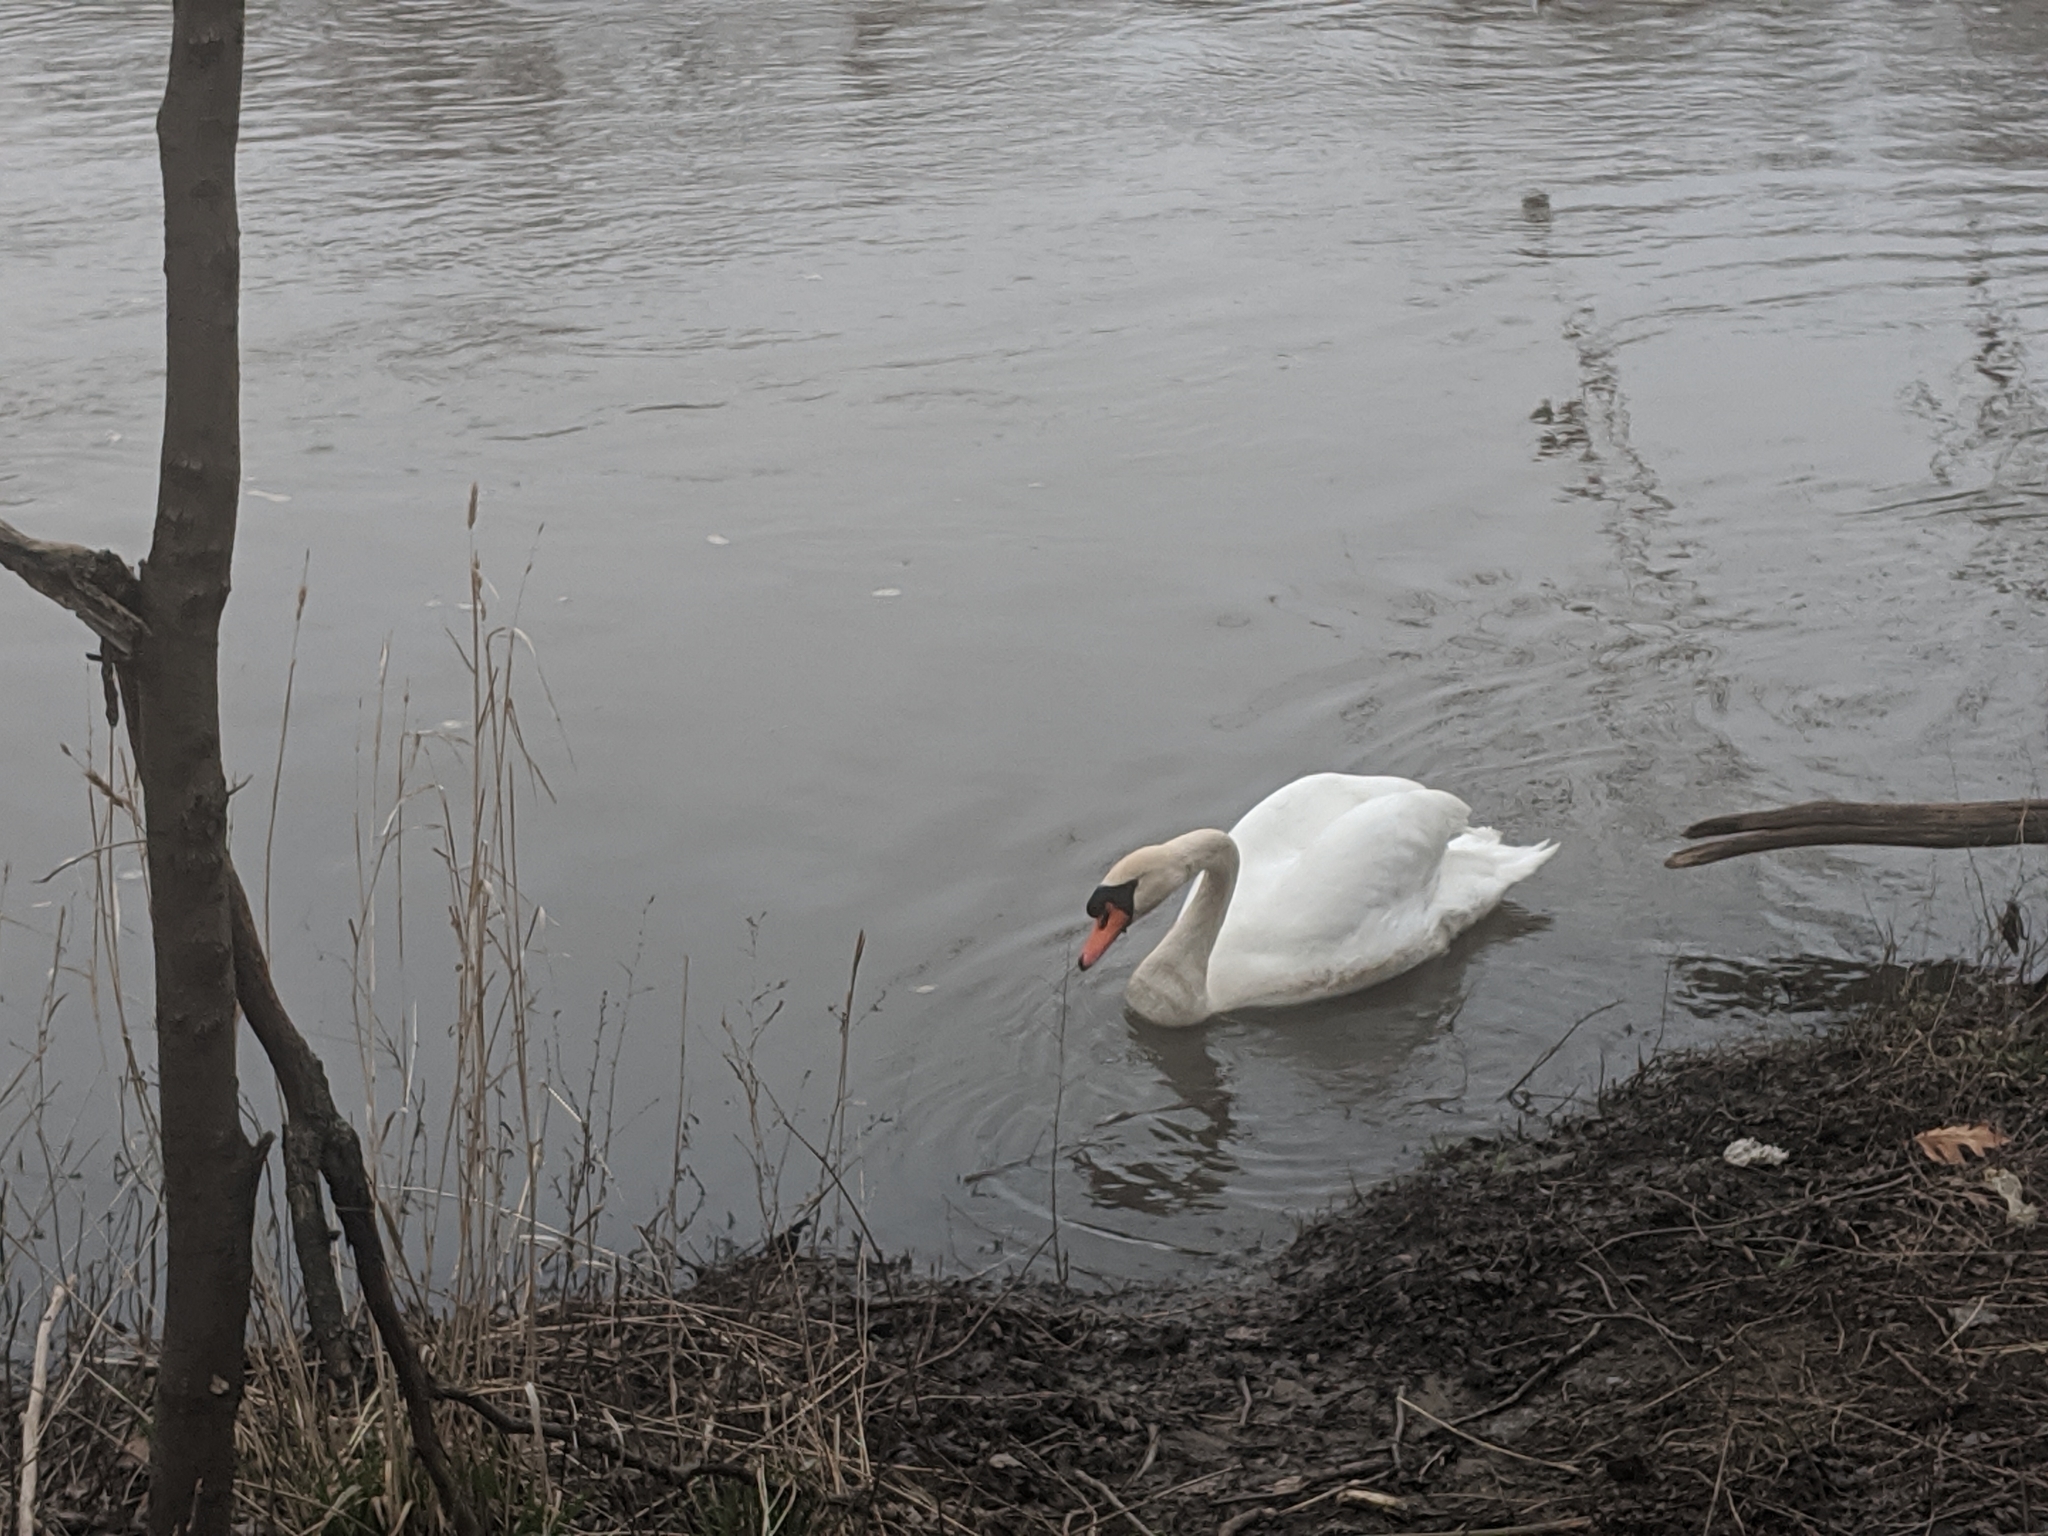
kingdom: Animalia
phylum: Chordata
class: Aves
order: Anseriformes
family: Anatidae
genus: Cygnus
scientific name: Cygnus olor
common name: Mute swan
